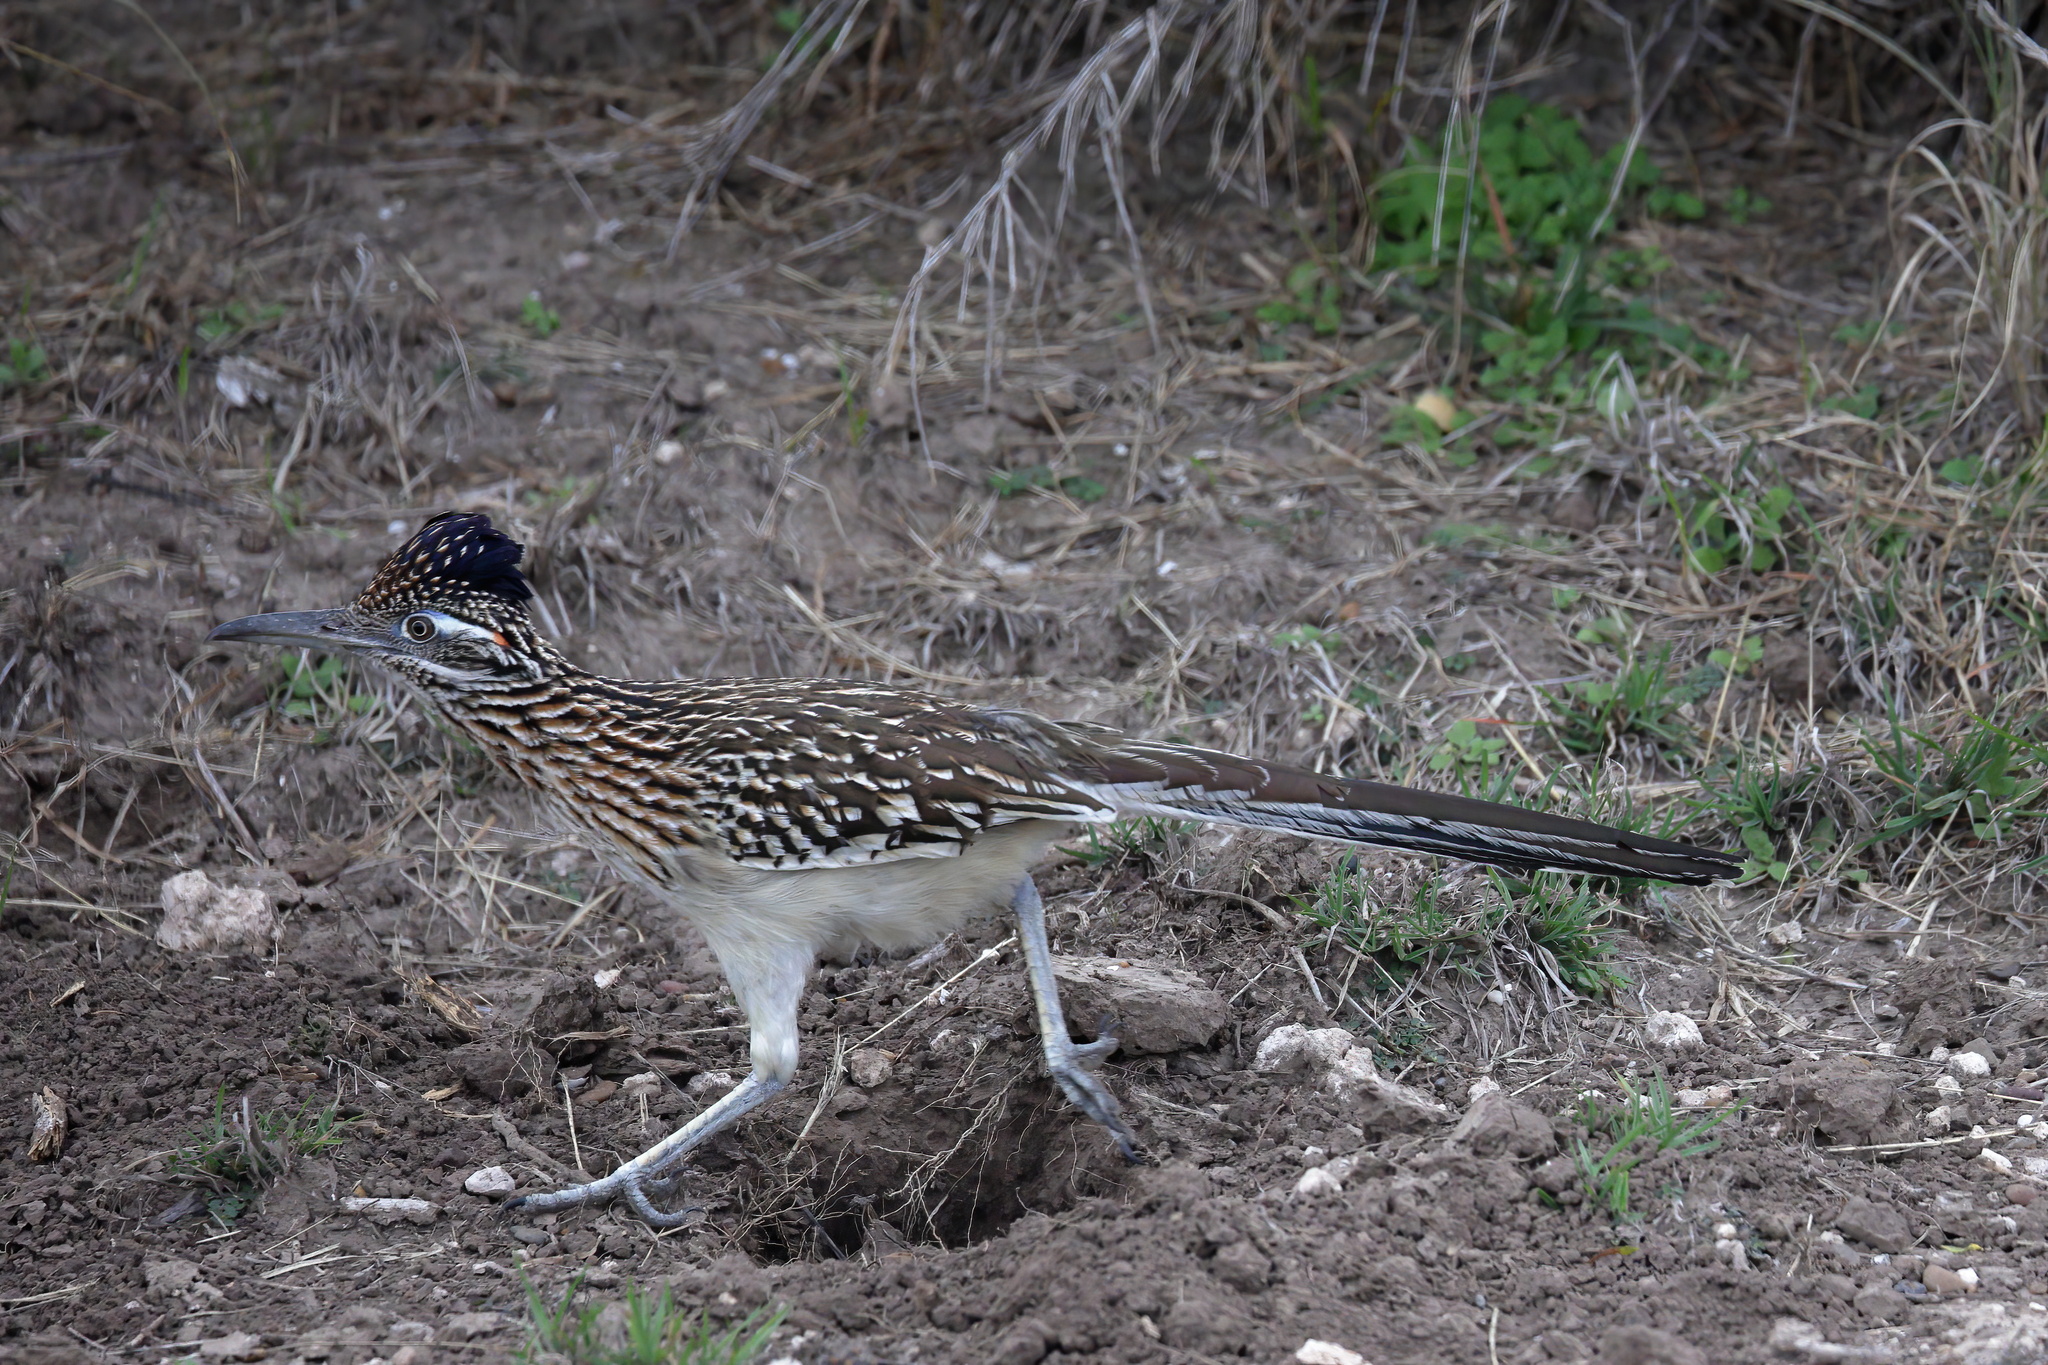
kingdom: Animalia
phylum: Chordata
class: Aves
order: Cuculiformes
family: Cuculidae
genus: Geococcyx
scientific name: Geococcyx californianus
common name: Greater roadrunner
